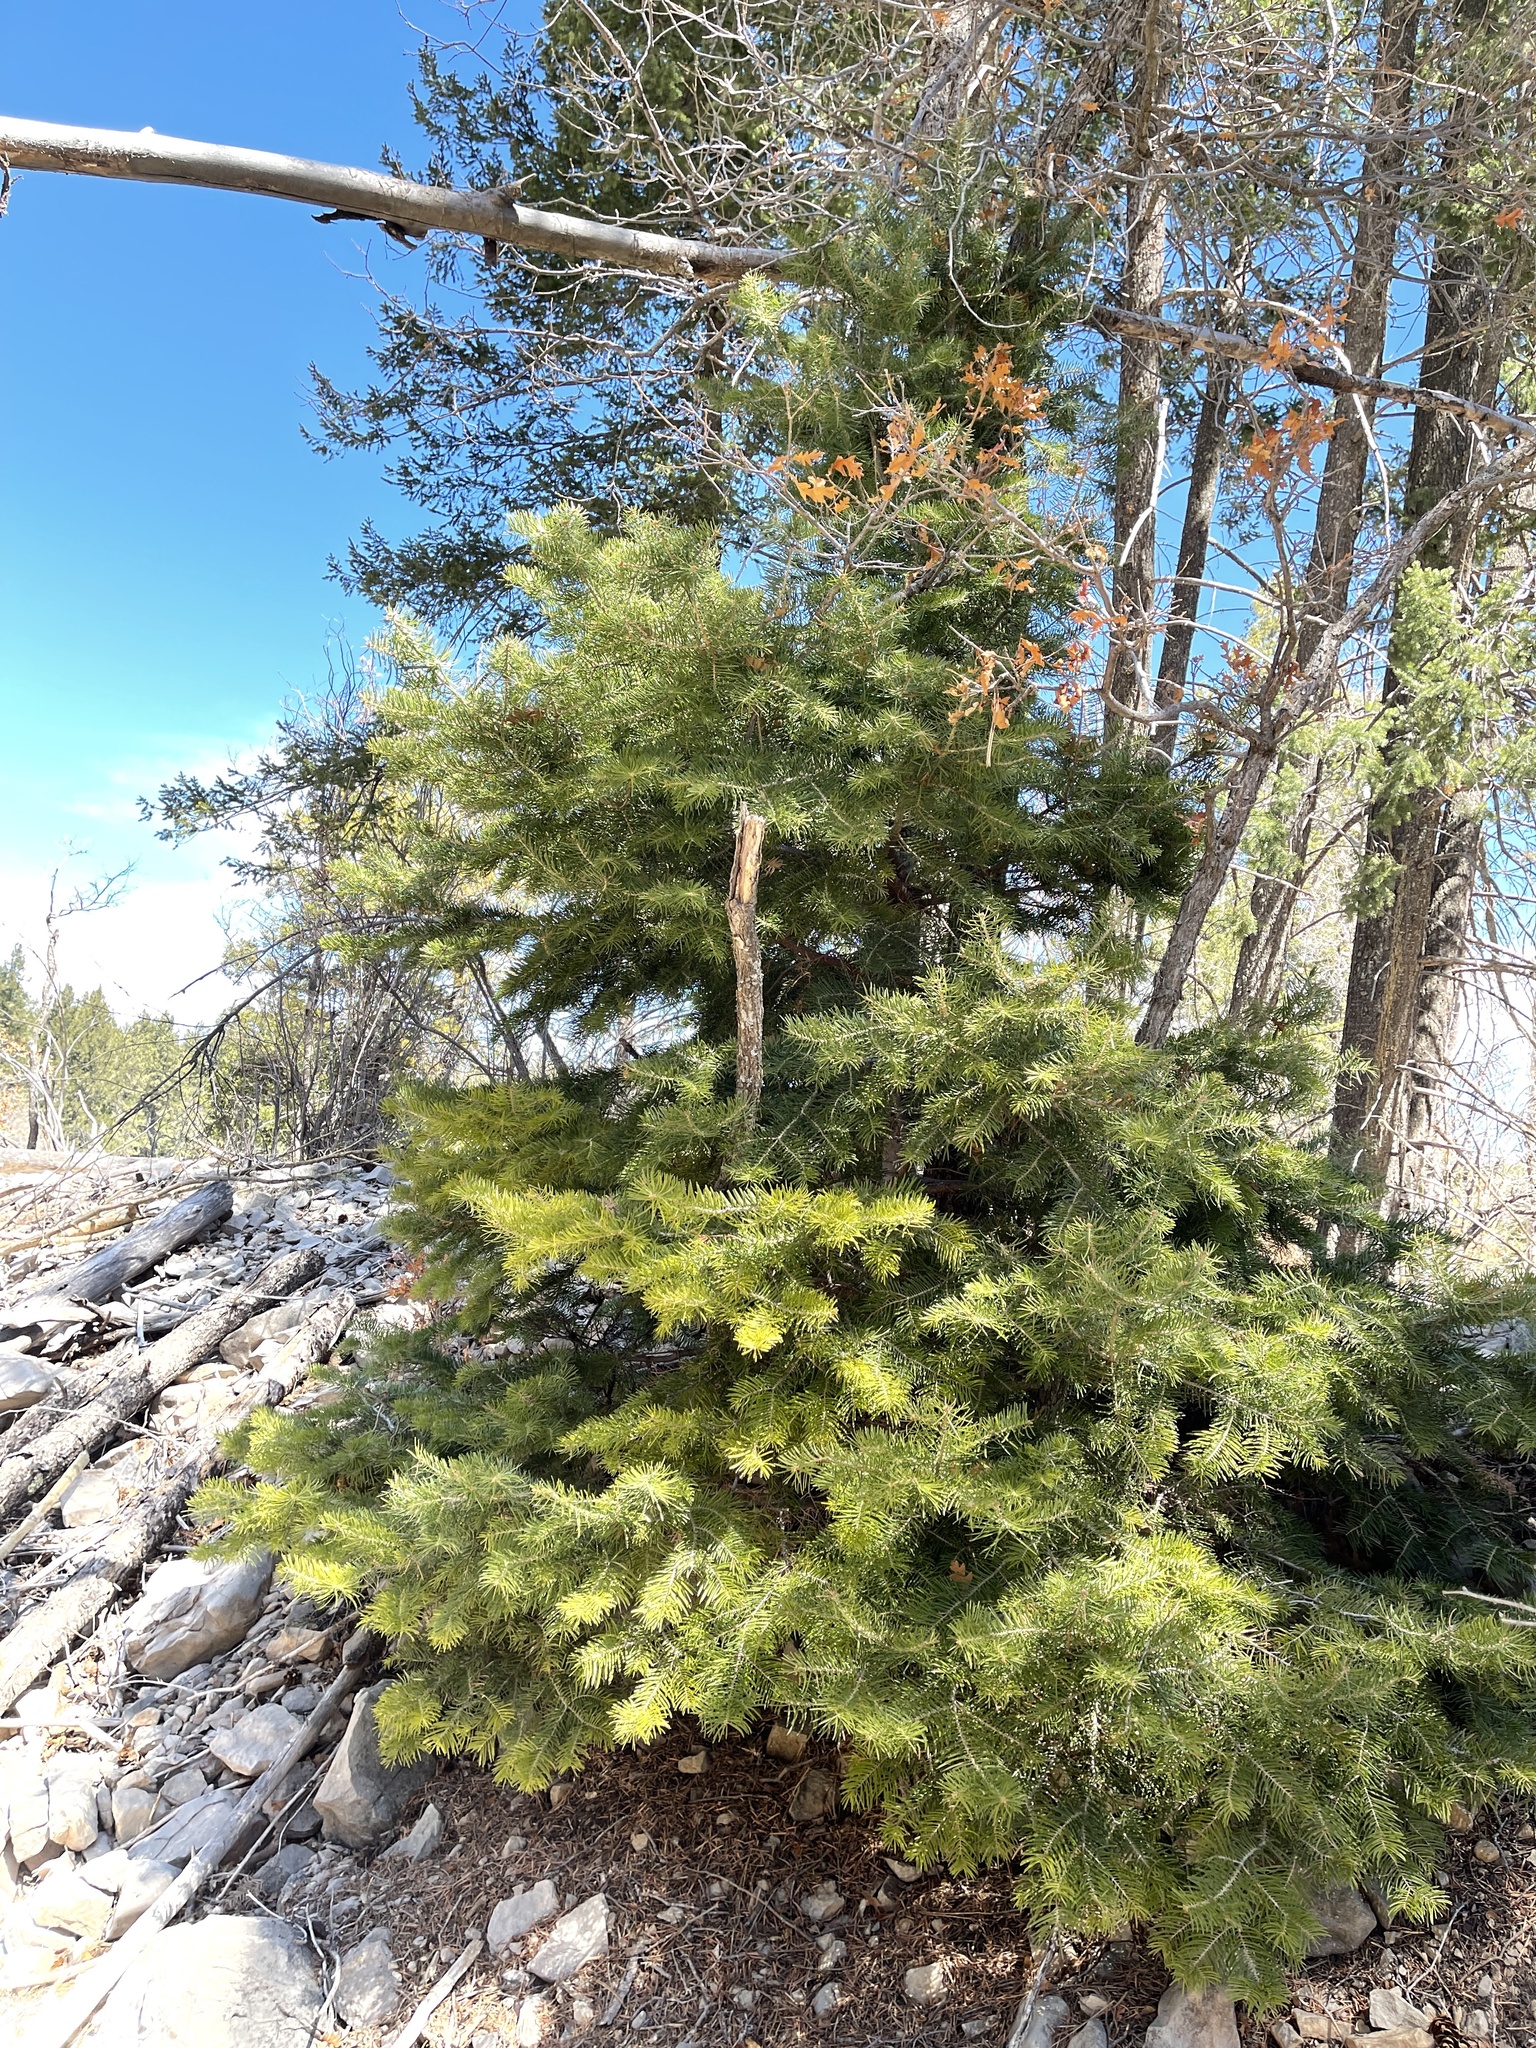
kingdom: Plantae
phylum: Tracheophyta
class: Pinopsida
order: Pinales
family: Pinaceae
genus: Abies
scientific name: Abies concolor
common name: Colorado fir
